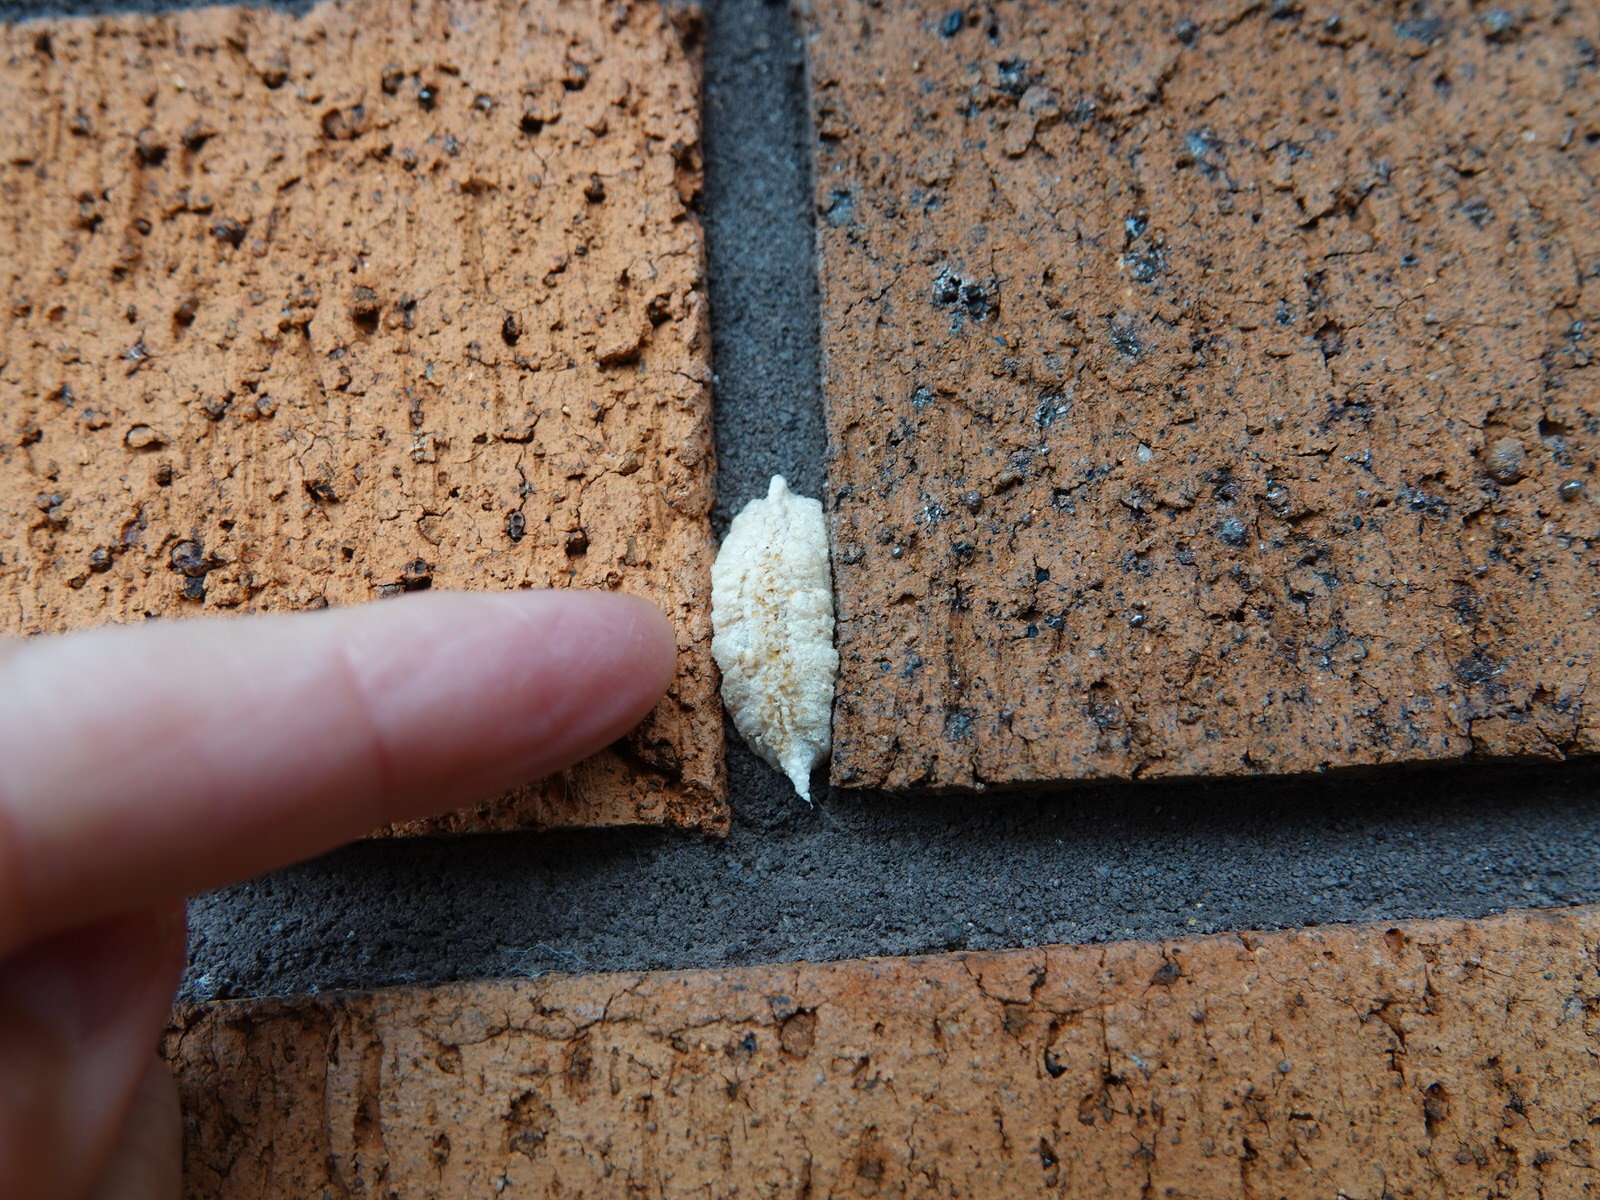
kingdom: Animalia
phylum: Arthropoda
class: Insecta
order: Mantodea
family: Miomantidae
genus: Miomantis
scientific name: Miomantis caffra
